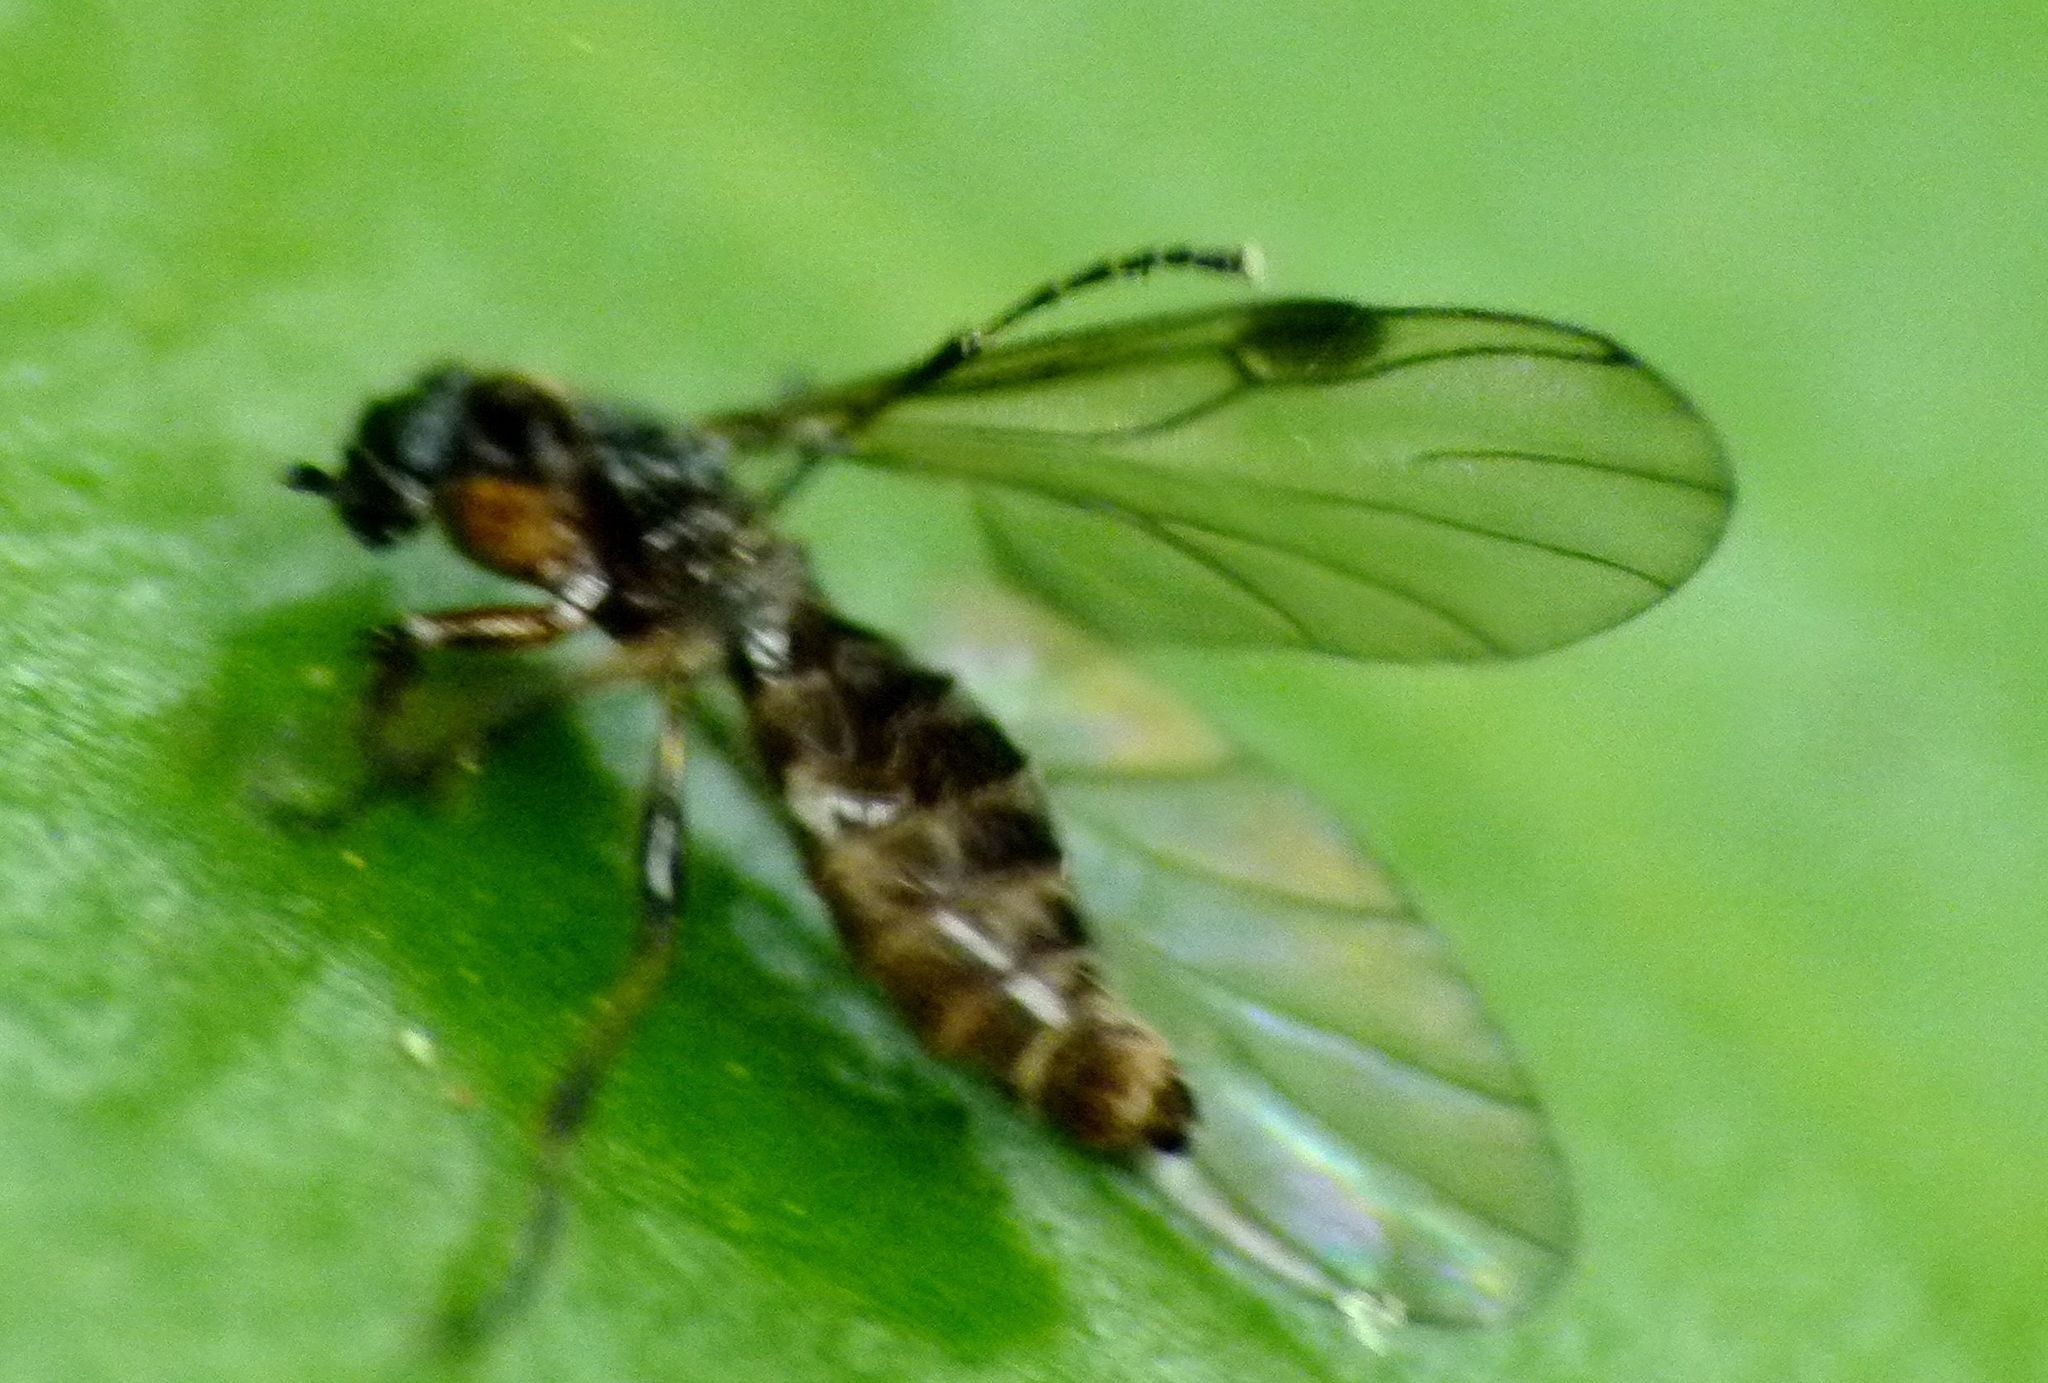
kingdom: Animalia
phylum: Arthropoda
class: Insecta
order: Diptera
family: Bibionidae
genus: Dilophus
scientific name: Dilophus tuthilli
